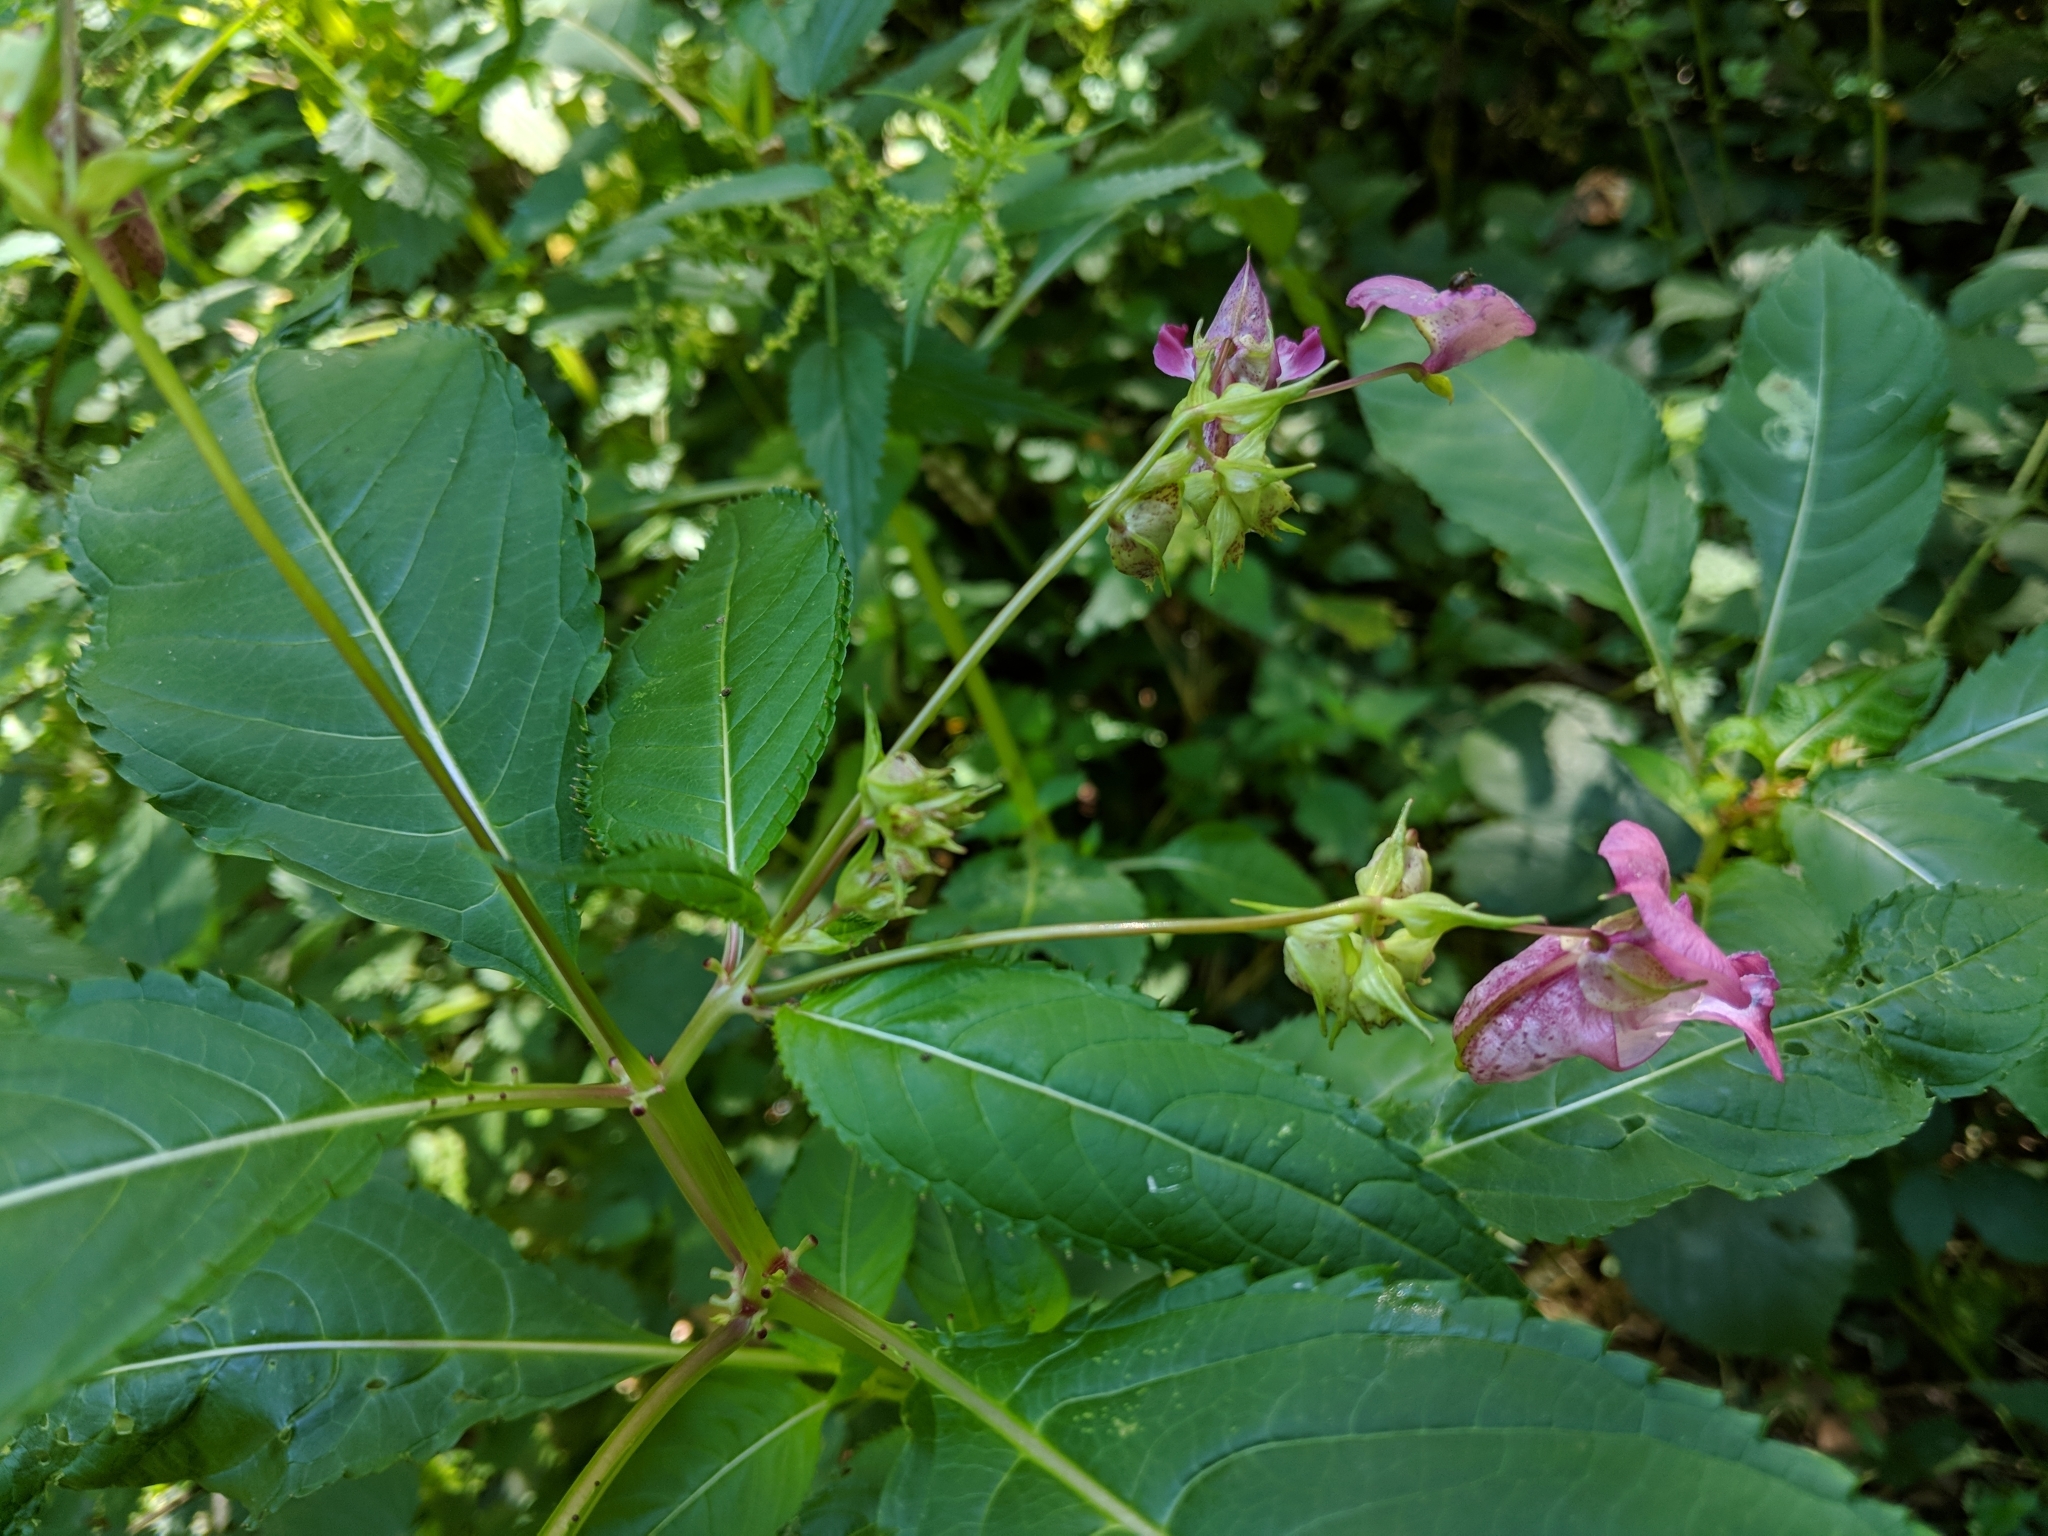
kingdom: Plantae
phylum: Tracheophyta
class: Magnoliopsida
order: Ericales
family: Balsaminaceae
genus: Impatiens
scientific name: Impatiens glandulifera
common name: Himalayan balsam
